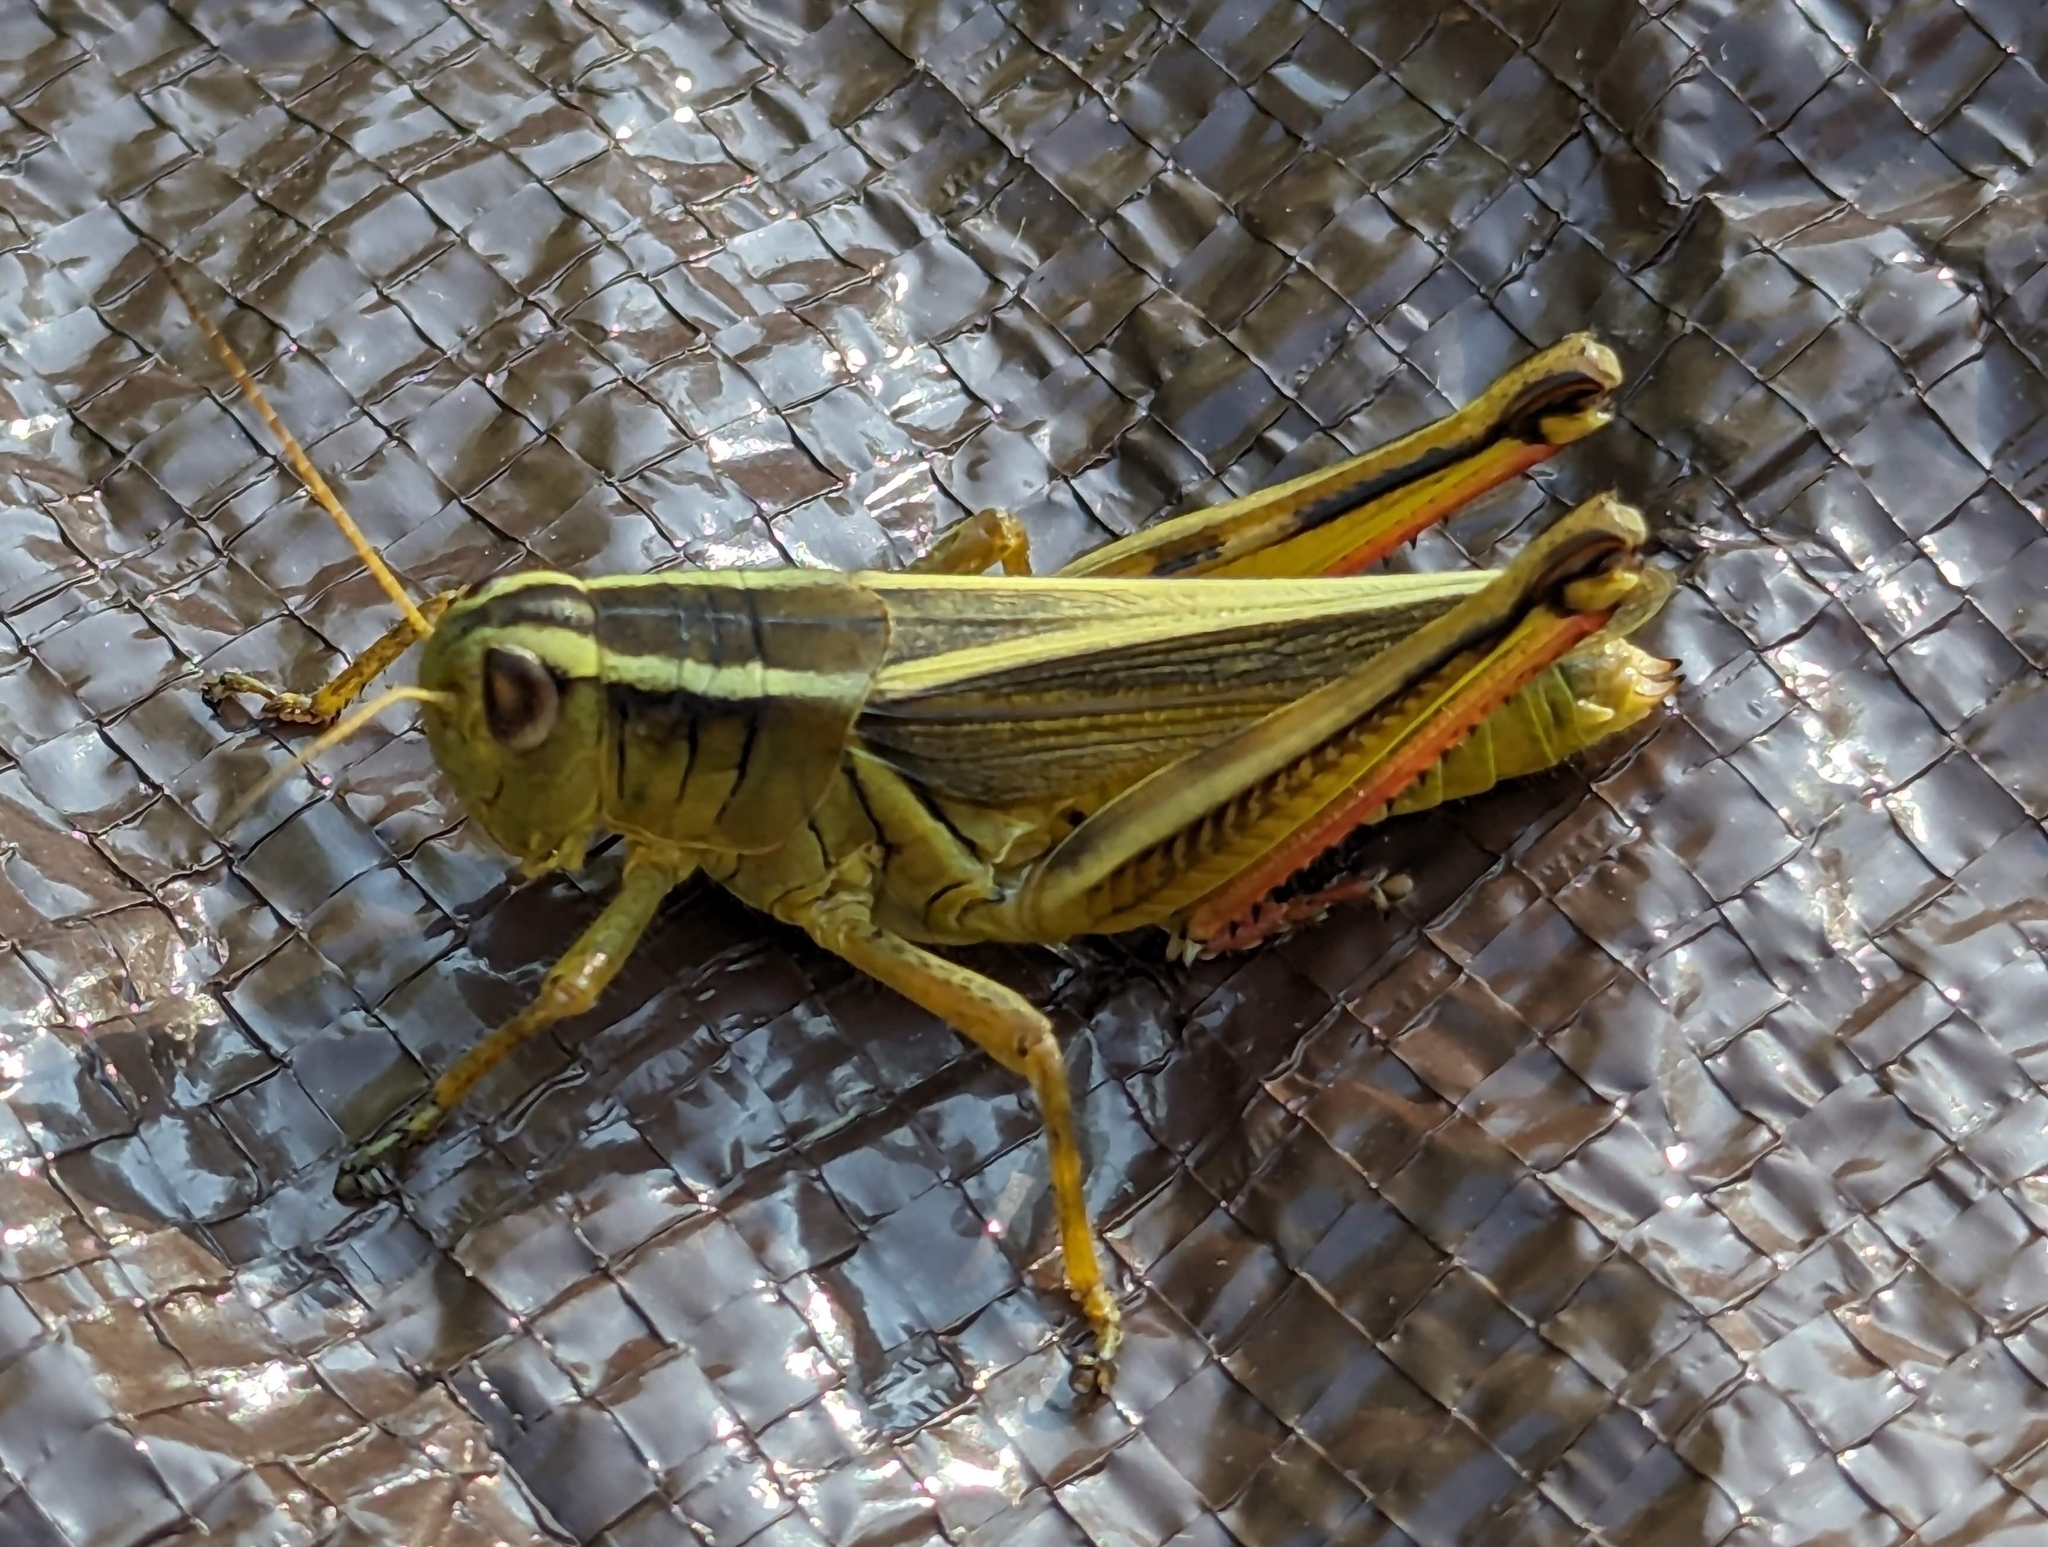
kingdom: Animalia
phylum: Arthropoda
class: Insecta
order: Orthoptera
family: Acrididae
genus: Melanoplus
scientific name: Melanoplus bivittatus
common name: Two-striped grasshopper
